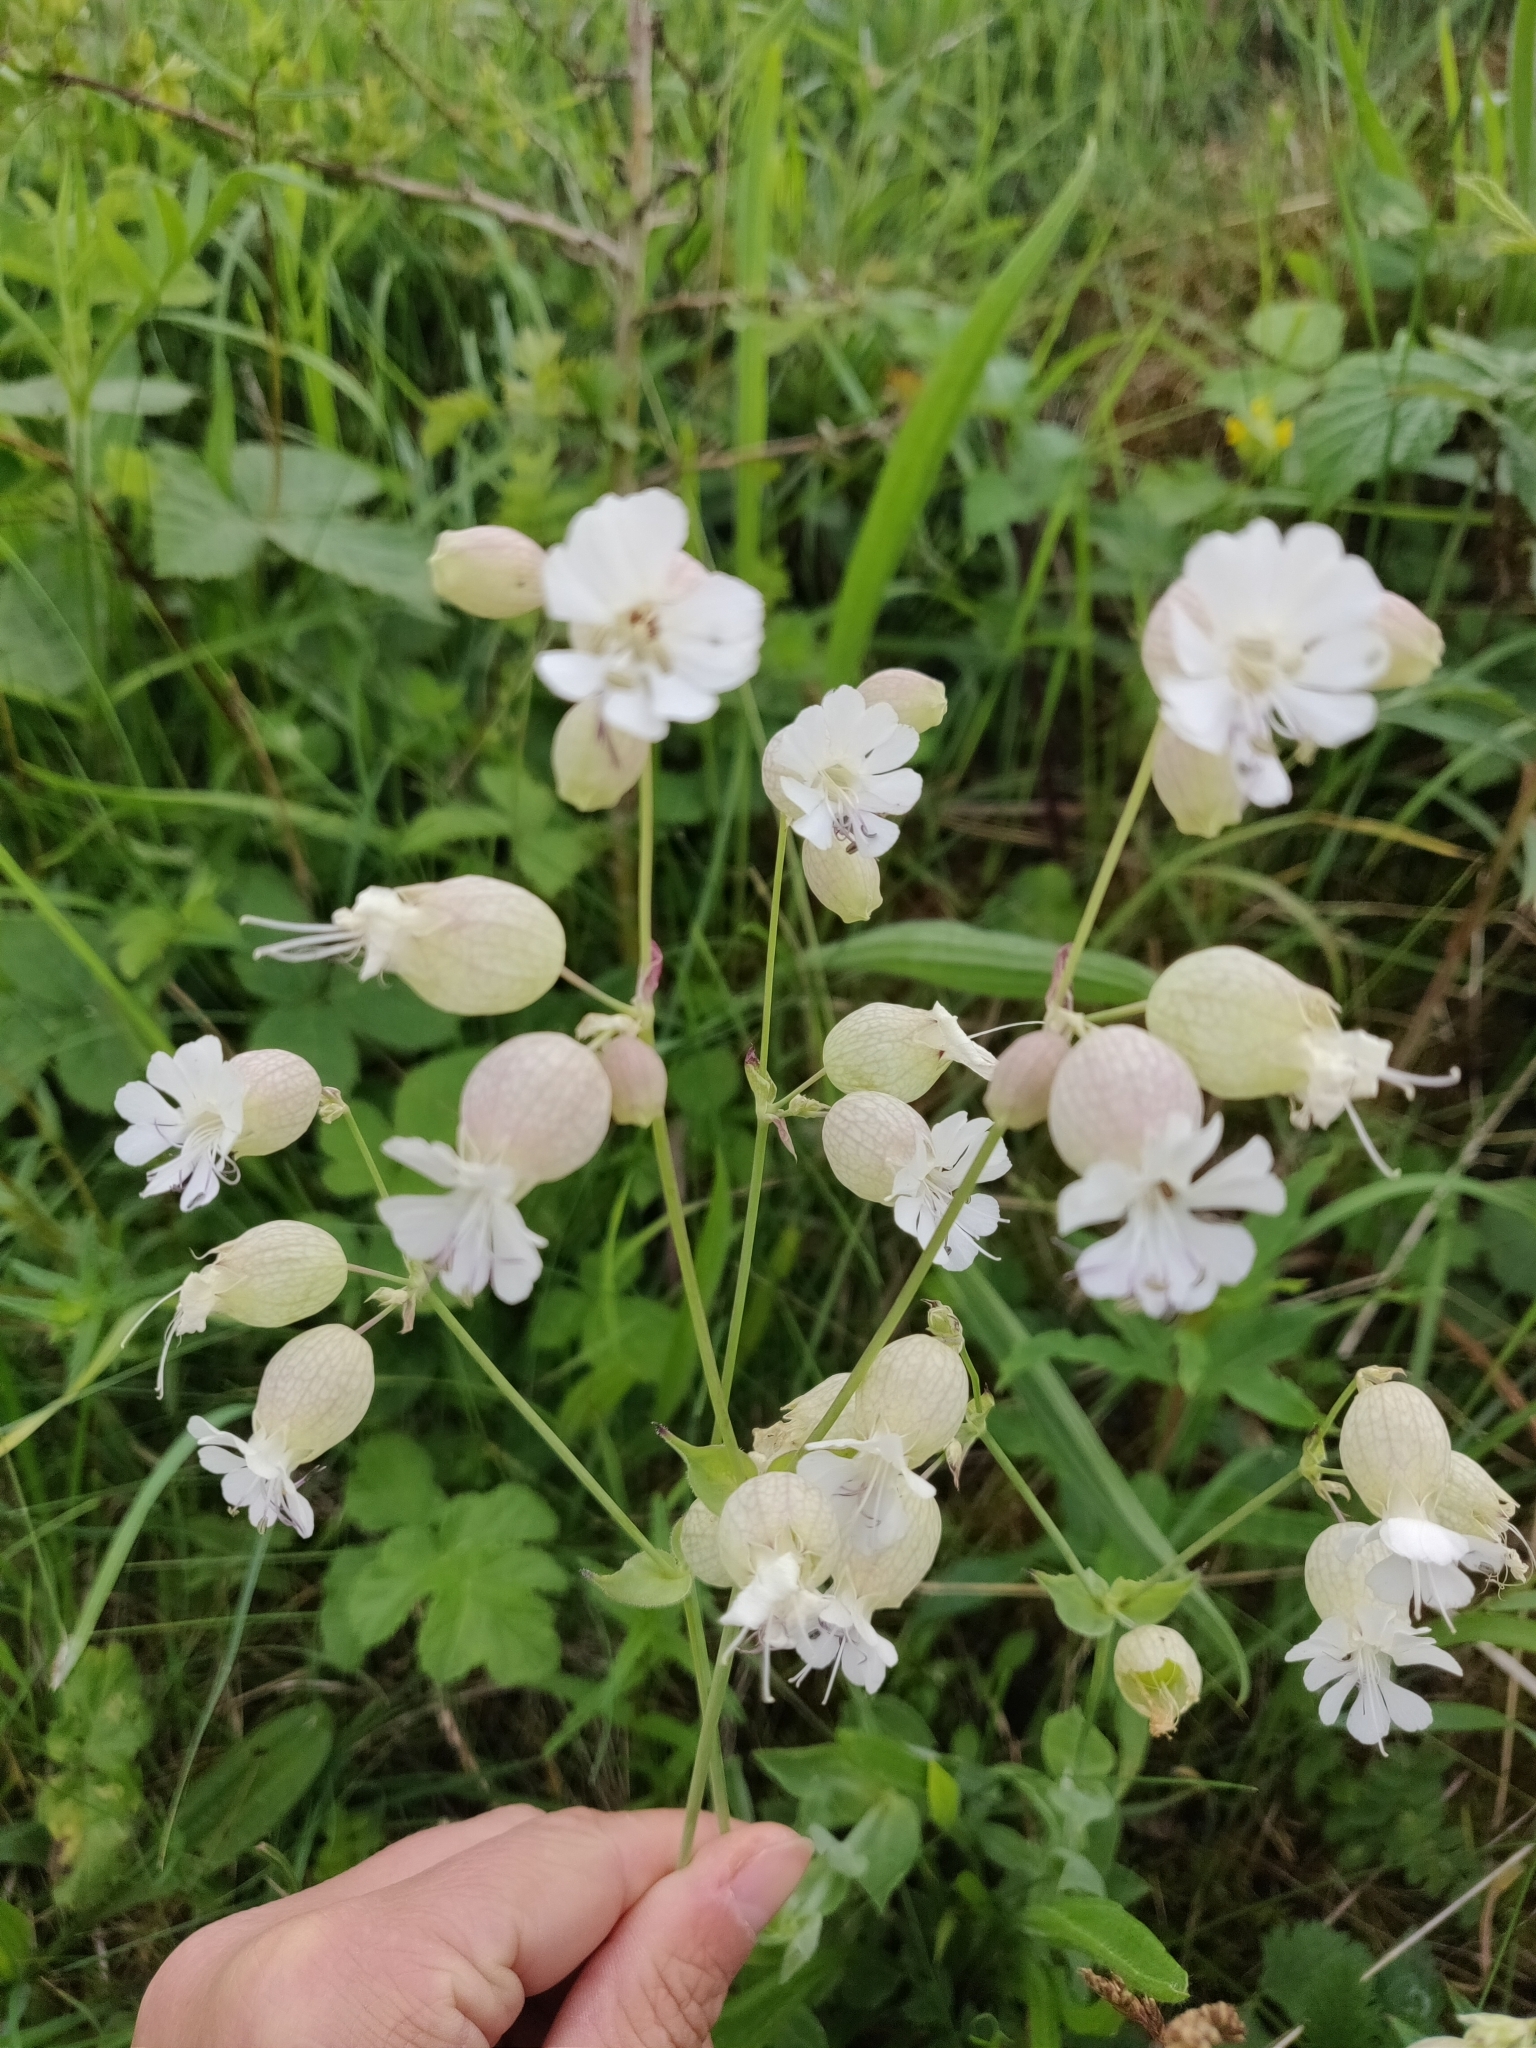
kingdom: Plantae
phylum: Tracheophyta
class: Magnoliopsida
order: Caryophyllales
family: Caryophyllaceae
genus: Silene
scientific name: Silene vulgaris
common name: Bladder campion
